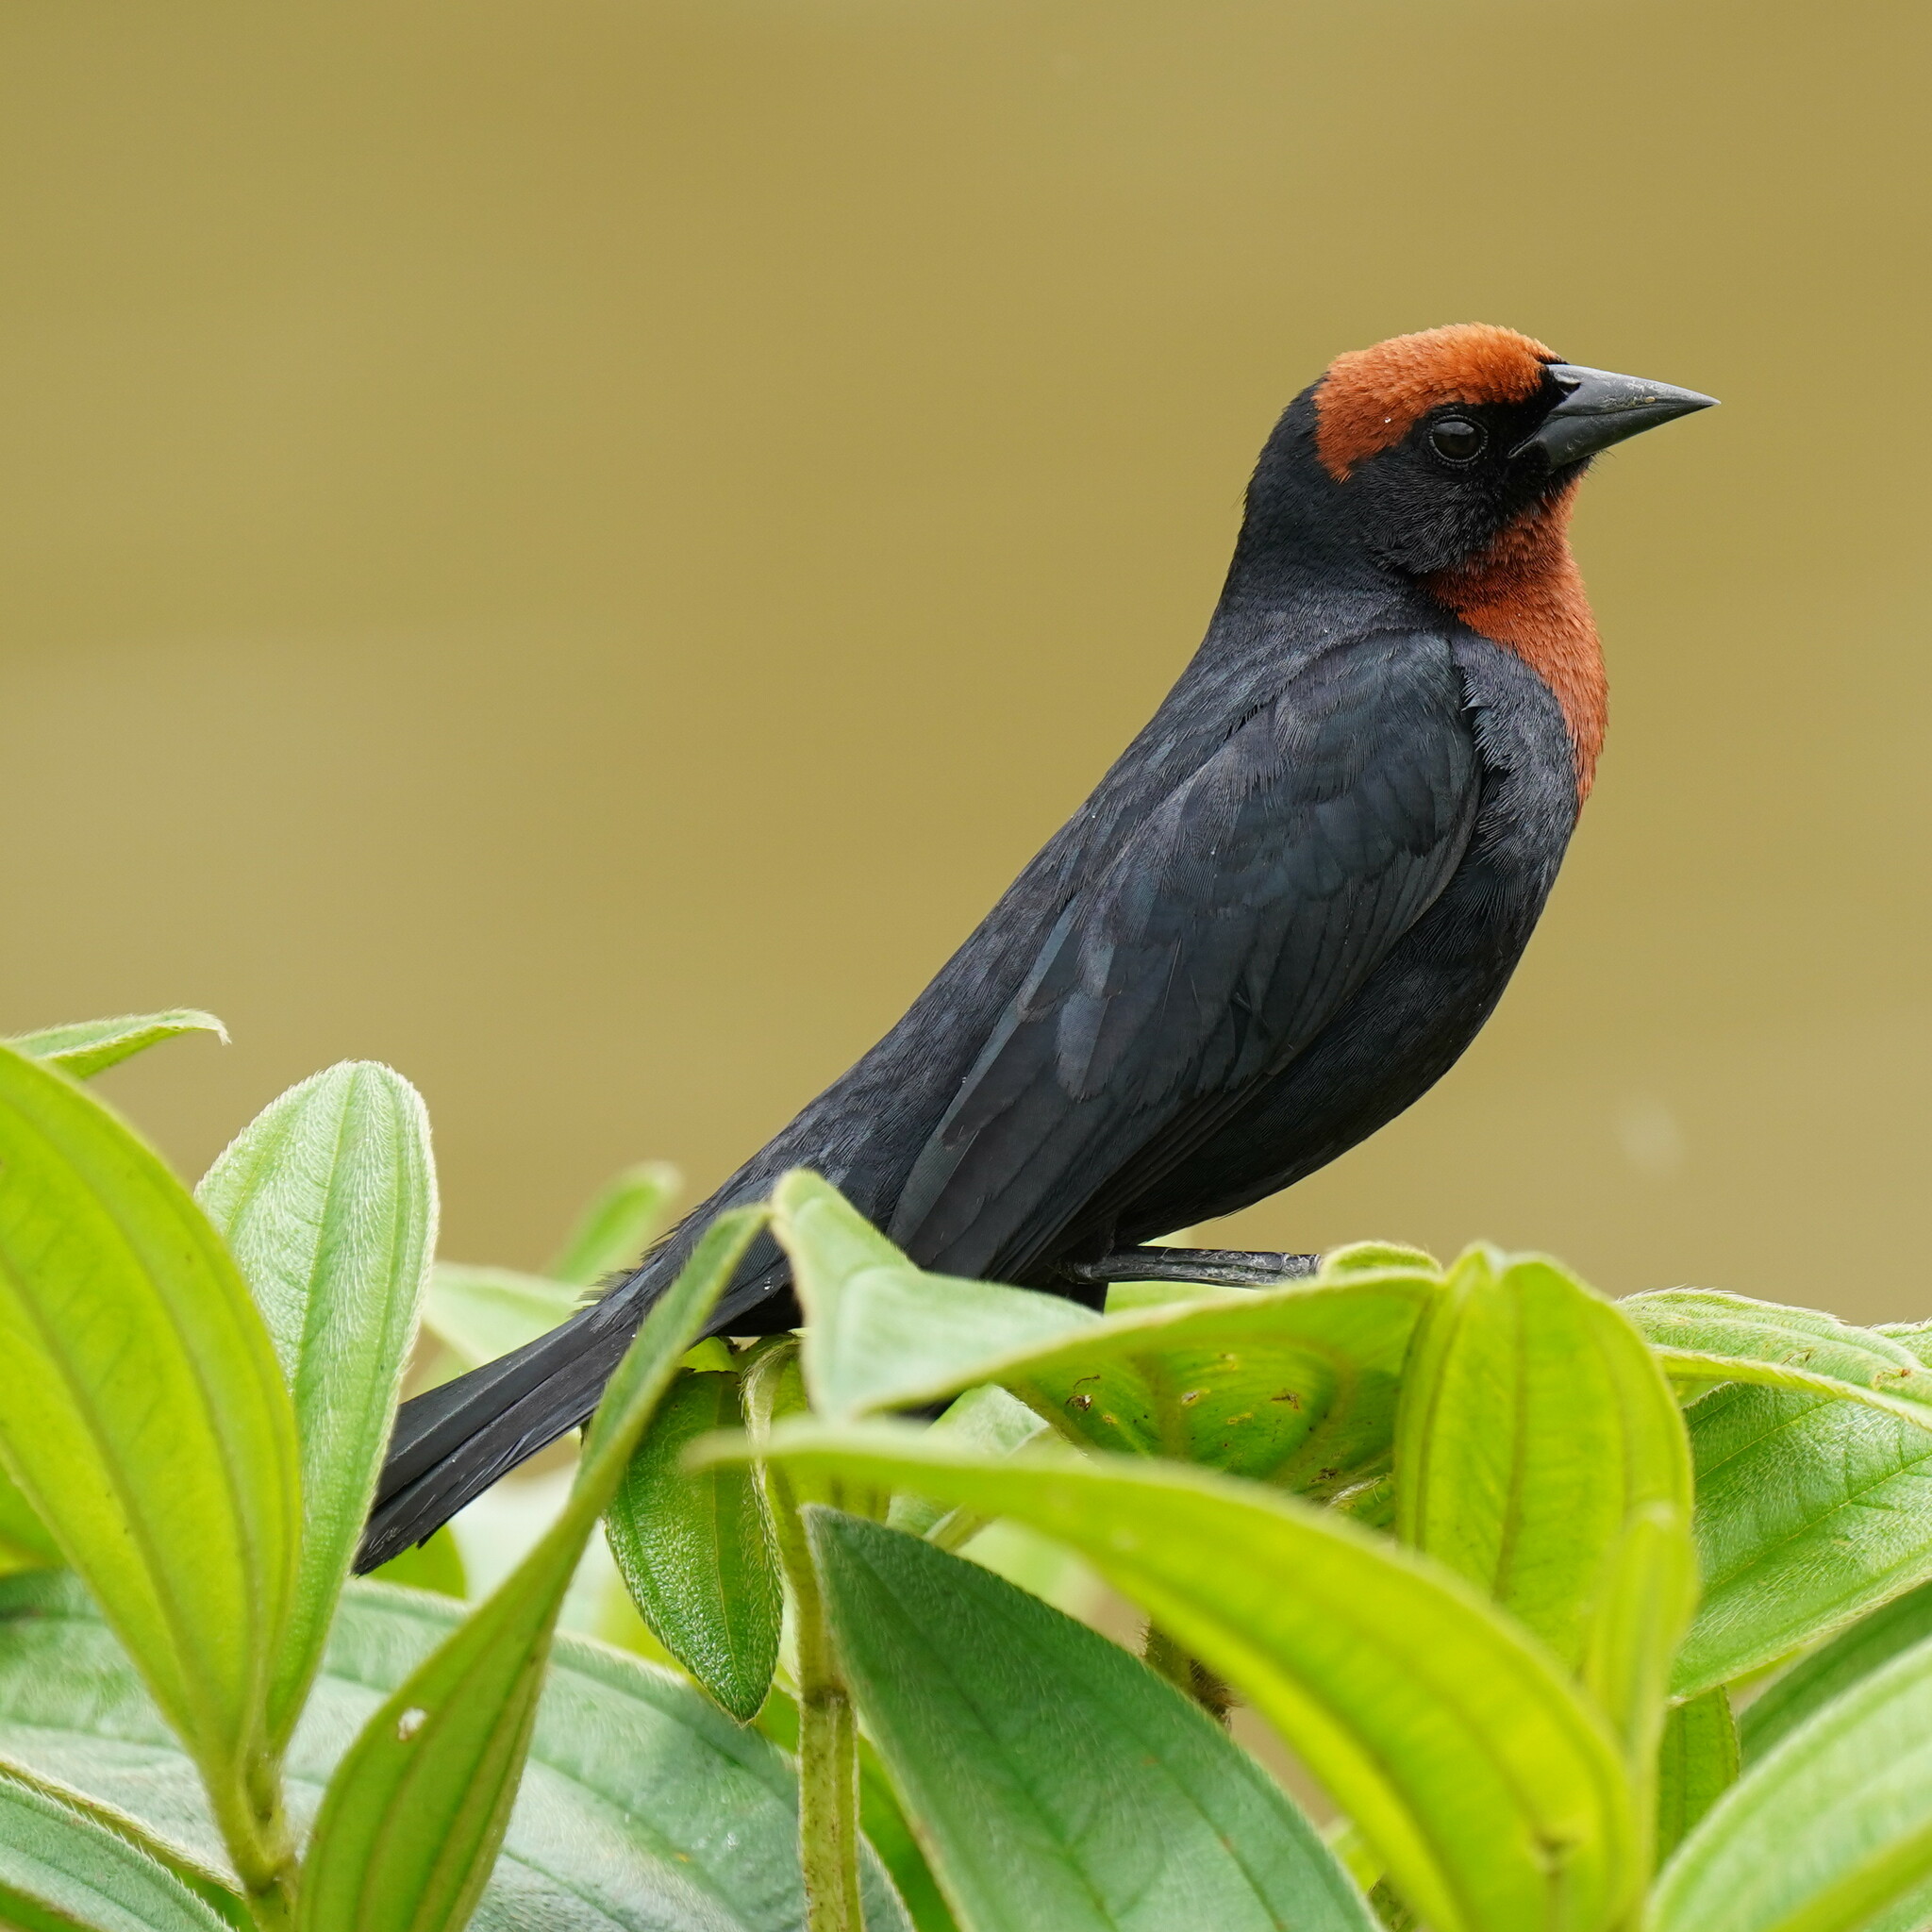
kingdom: Animalia
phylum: Chordata
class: Aves
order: Passeriformes
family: Icteridae
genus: Chrysomus
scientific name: Chrysomus ruficapillus
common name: Chestnut-capped blackbird
